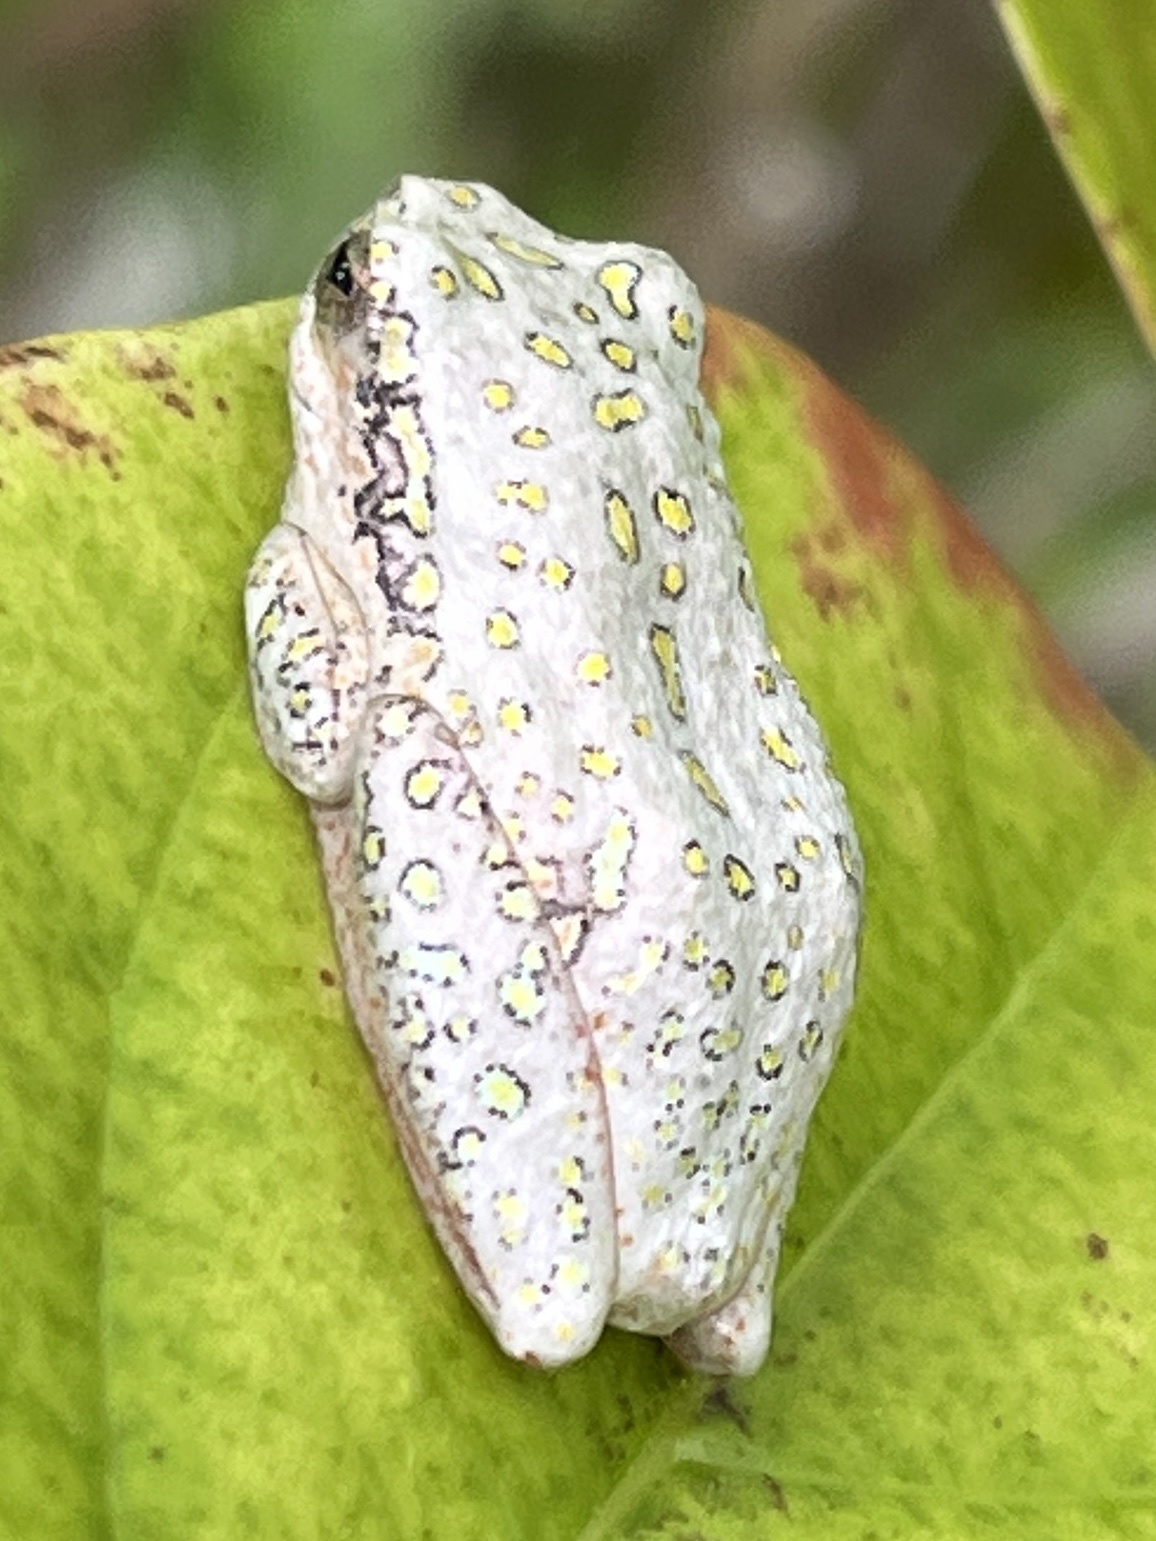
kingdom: Animalia
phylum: Chordata
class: Amphibia
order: Anura
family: Hyperoliidae
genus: Hyperolius
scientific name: Hyperolius marmoratus
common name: Painted reed frog
